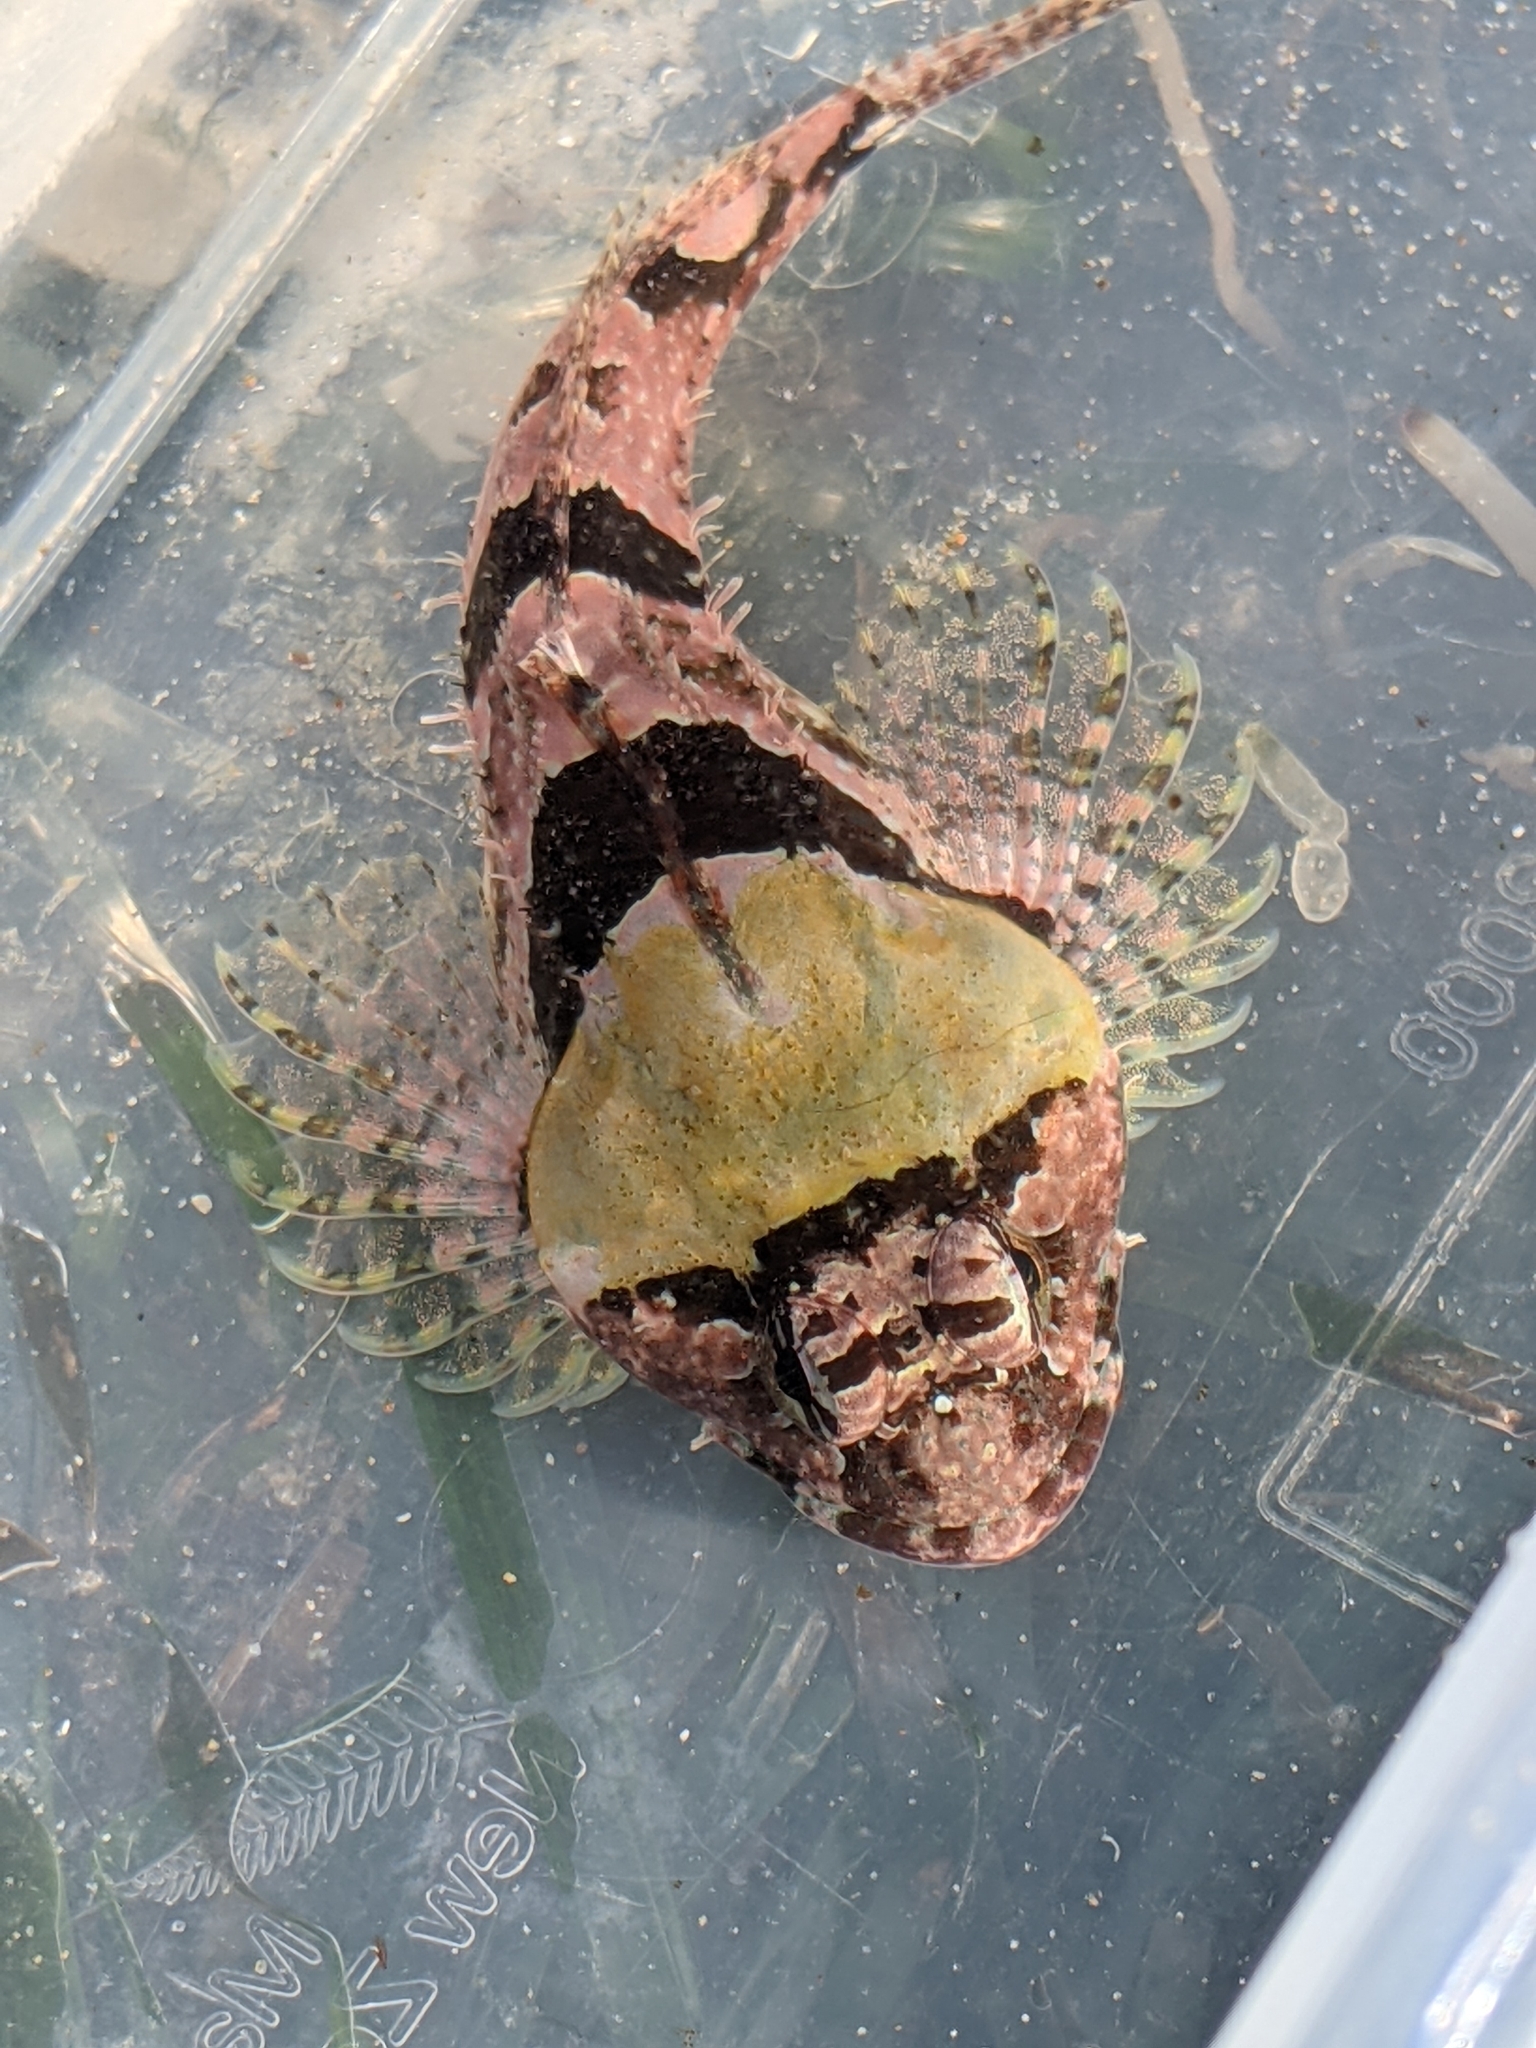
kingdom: Animalia
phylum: Chordata
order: Scorpaeniformes
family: Cottidae
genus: Artedius
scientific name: Artedius lateralis
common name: Smooth-head sculpin
